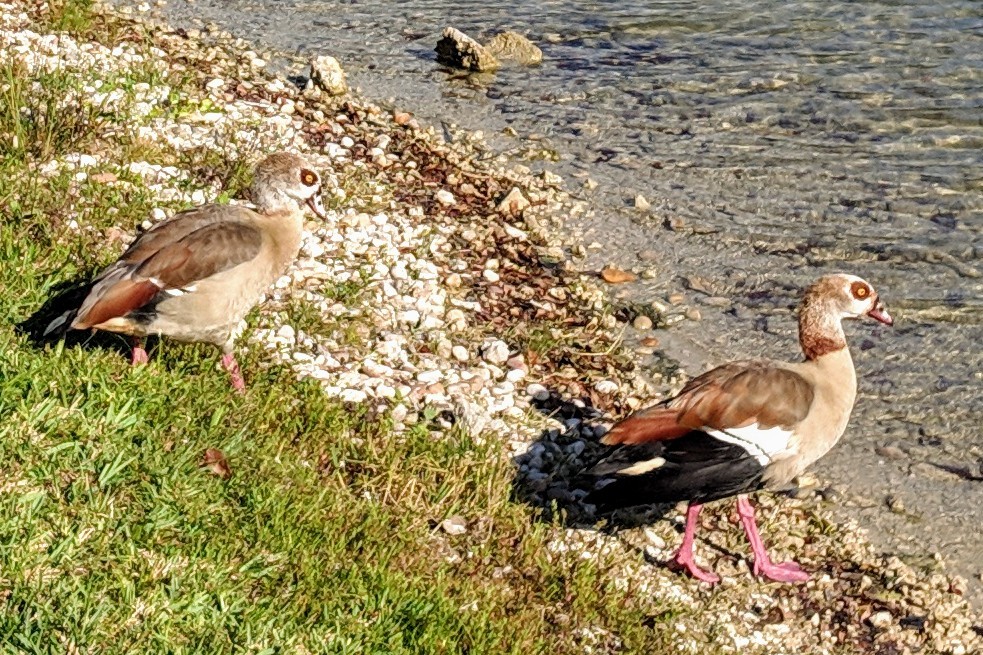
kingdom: Animalia
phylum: Chordata
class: Aves
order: Anseriformes
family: Anatidae
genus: Alopochen
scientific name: Alopochen aegyptiaca
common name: Egyptian goose
